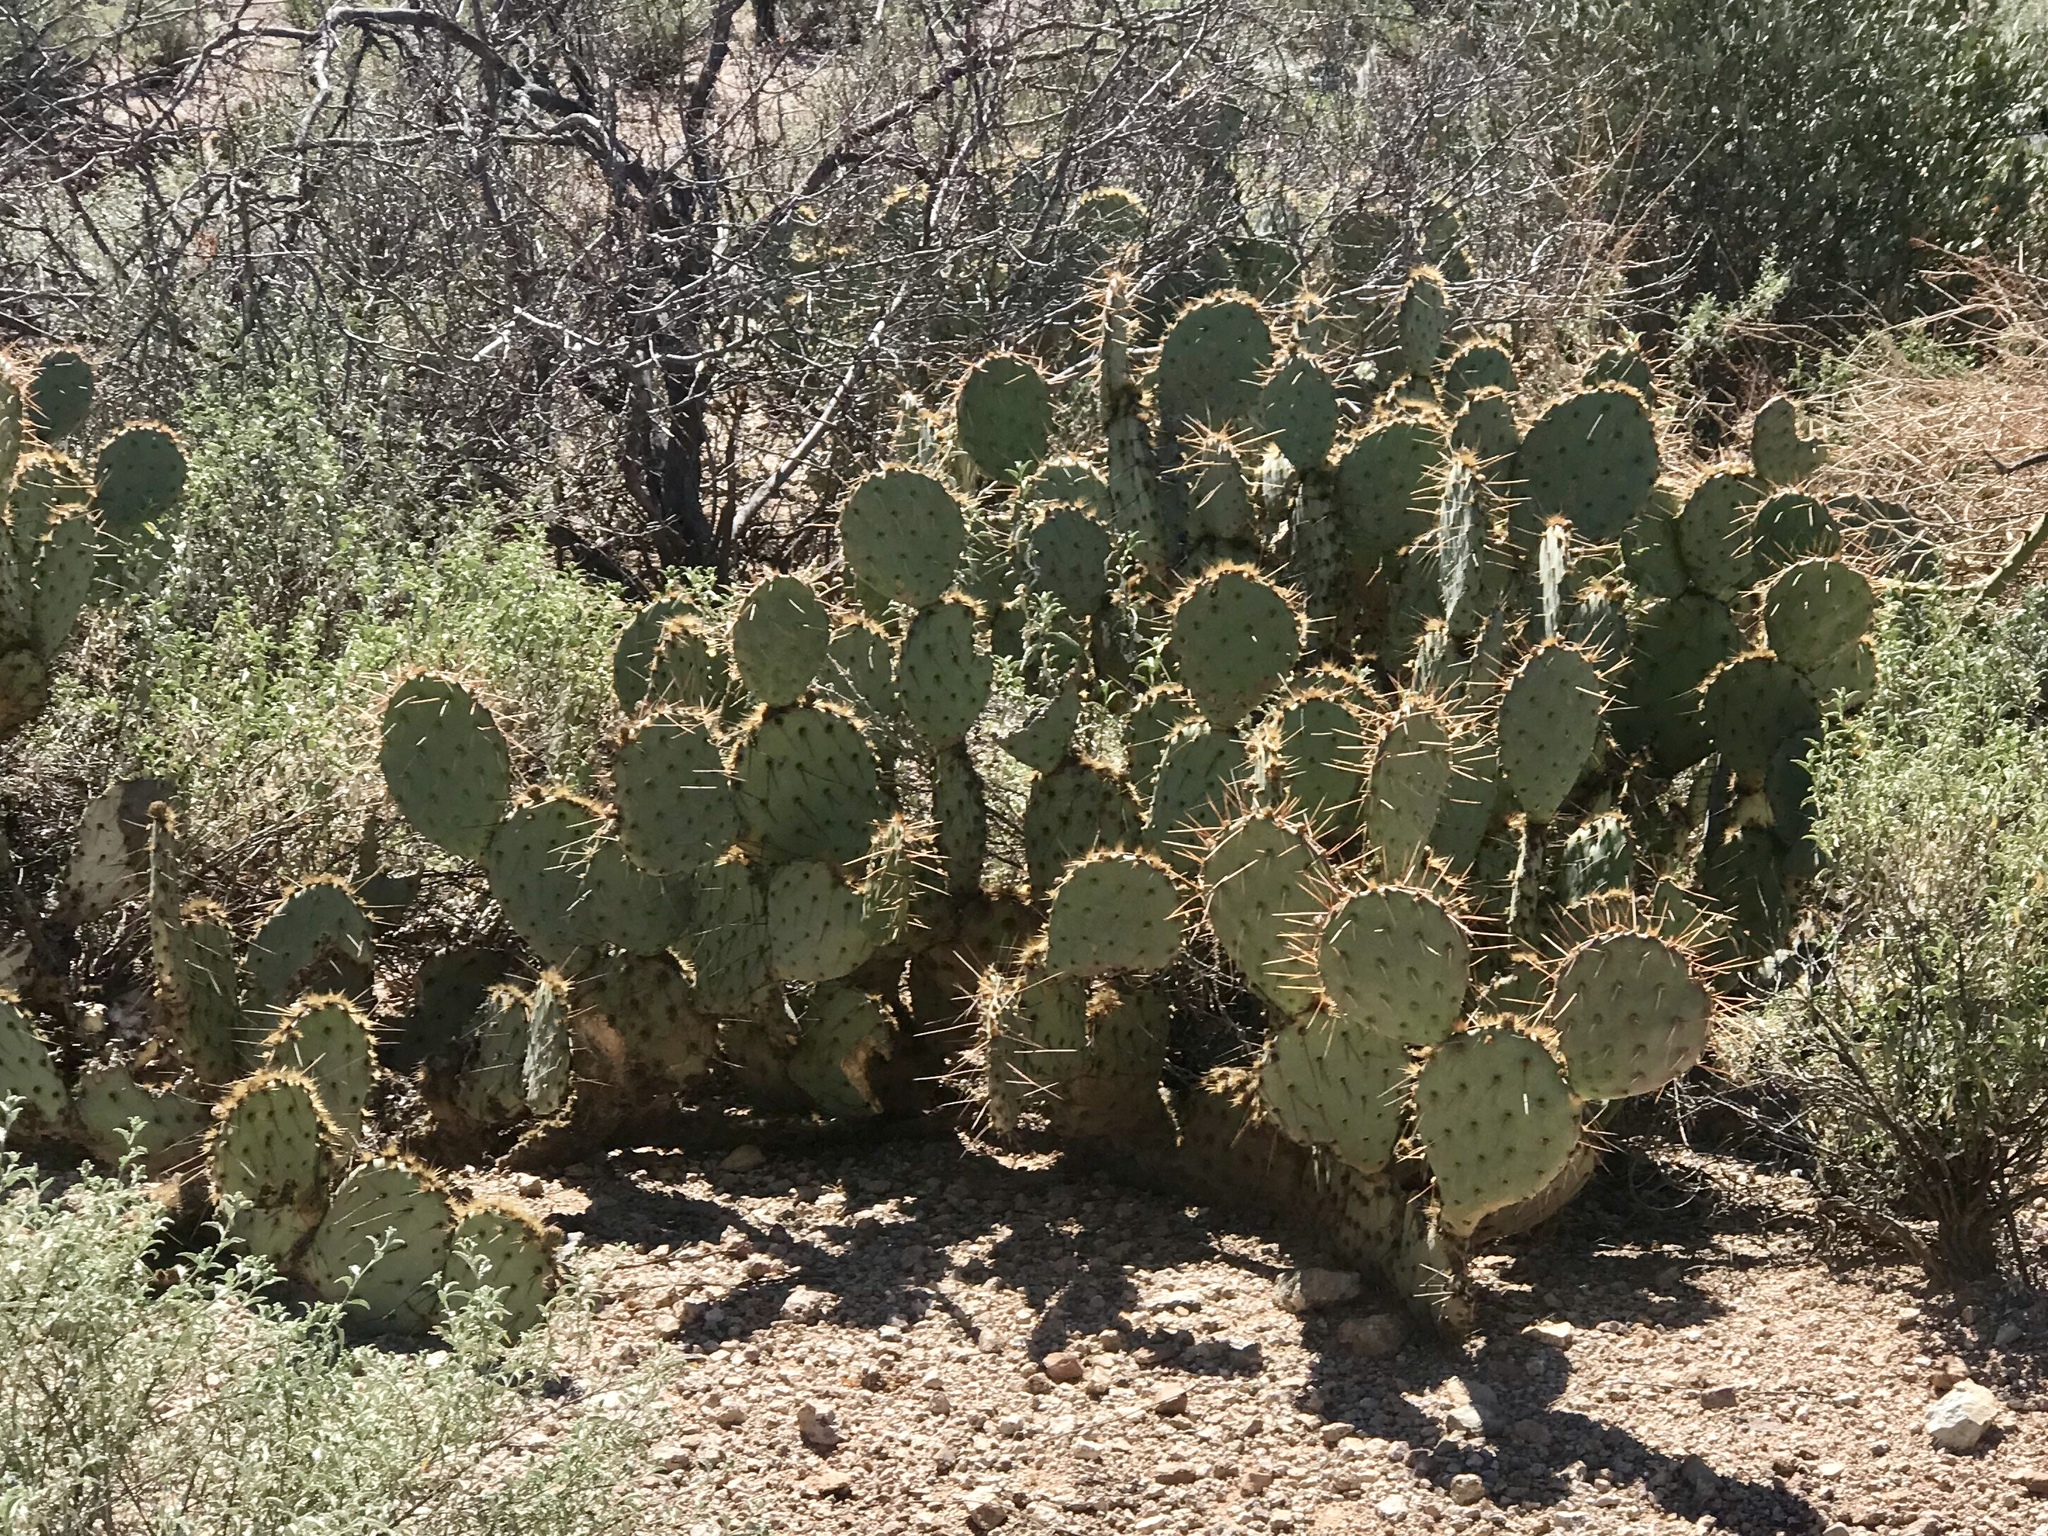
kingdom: Plantae
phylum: Tracheophyta
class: Magnoliopsida
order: Caryophyllales
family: Cactaceae
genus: Opuntia
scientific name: Opuntia phaeacantha
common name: New mexico prickly-pear
